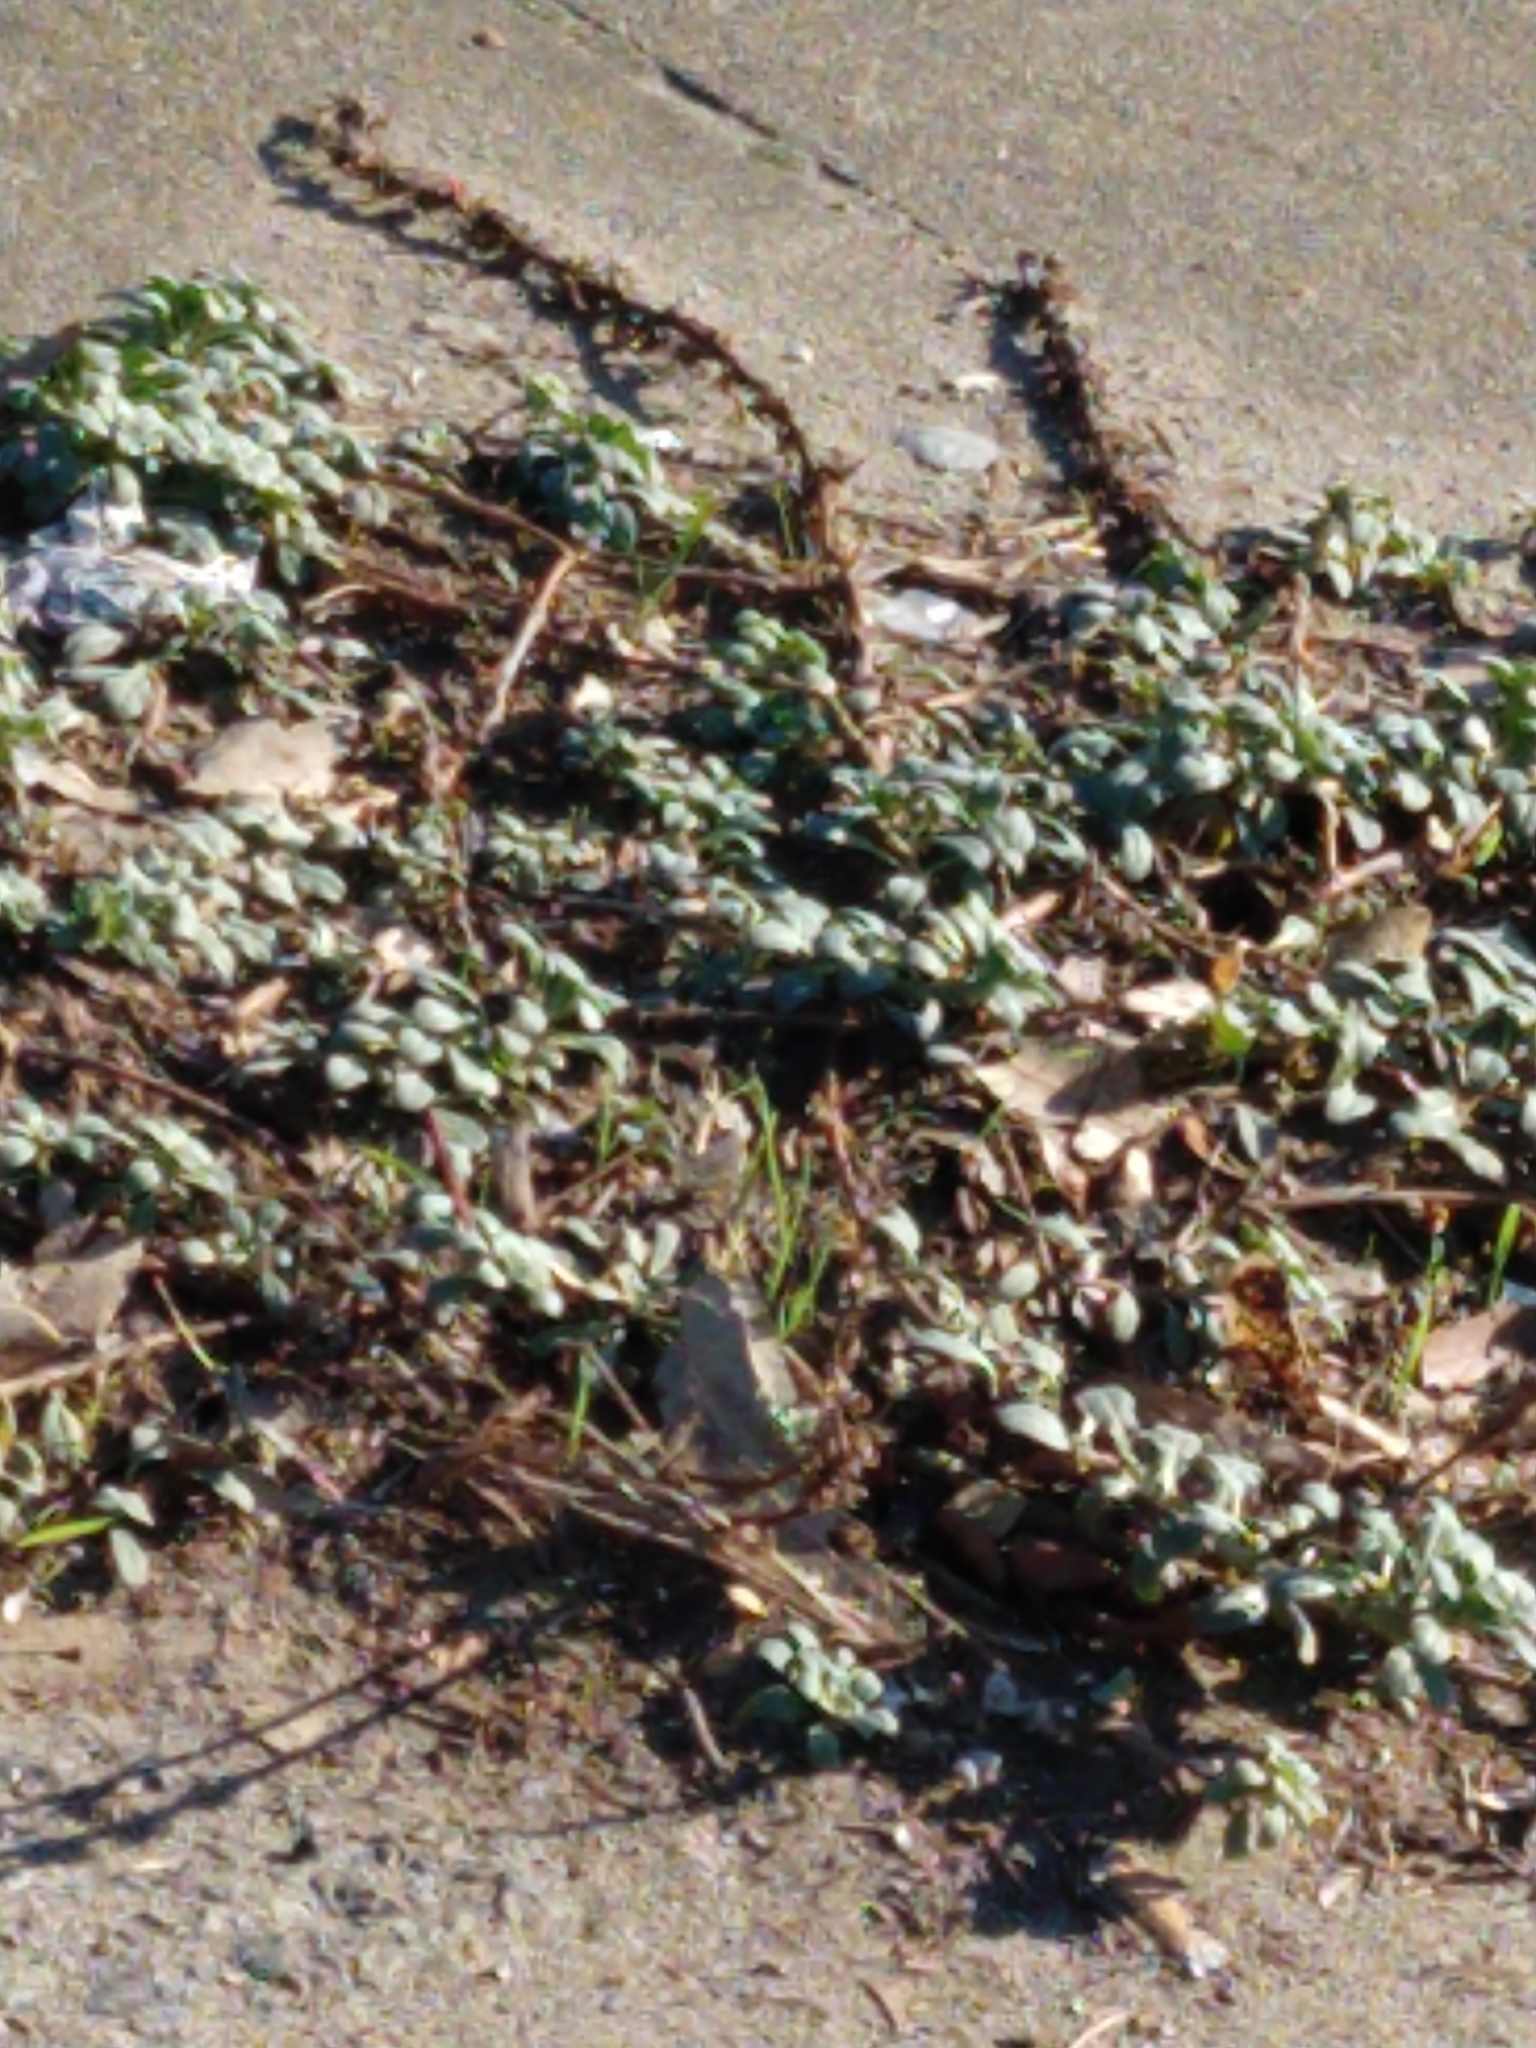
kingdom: Plantae
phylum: Tracheophyta
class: Magnoliopsida
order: Myrtales
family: Onagraceae
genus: Camissoniopsis
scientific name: Camissoniopsis cheiranthifolia
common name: Beach suncup
